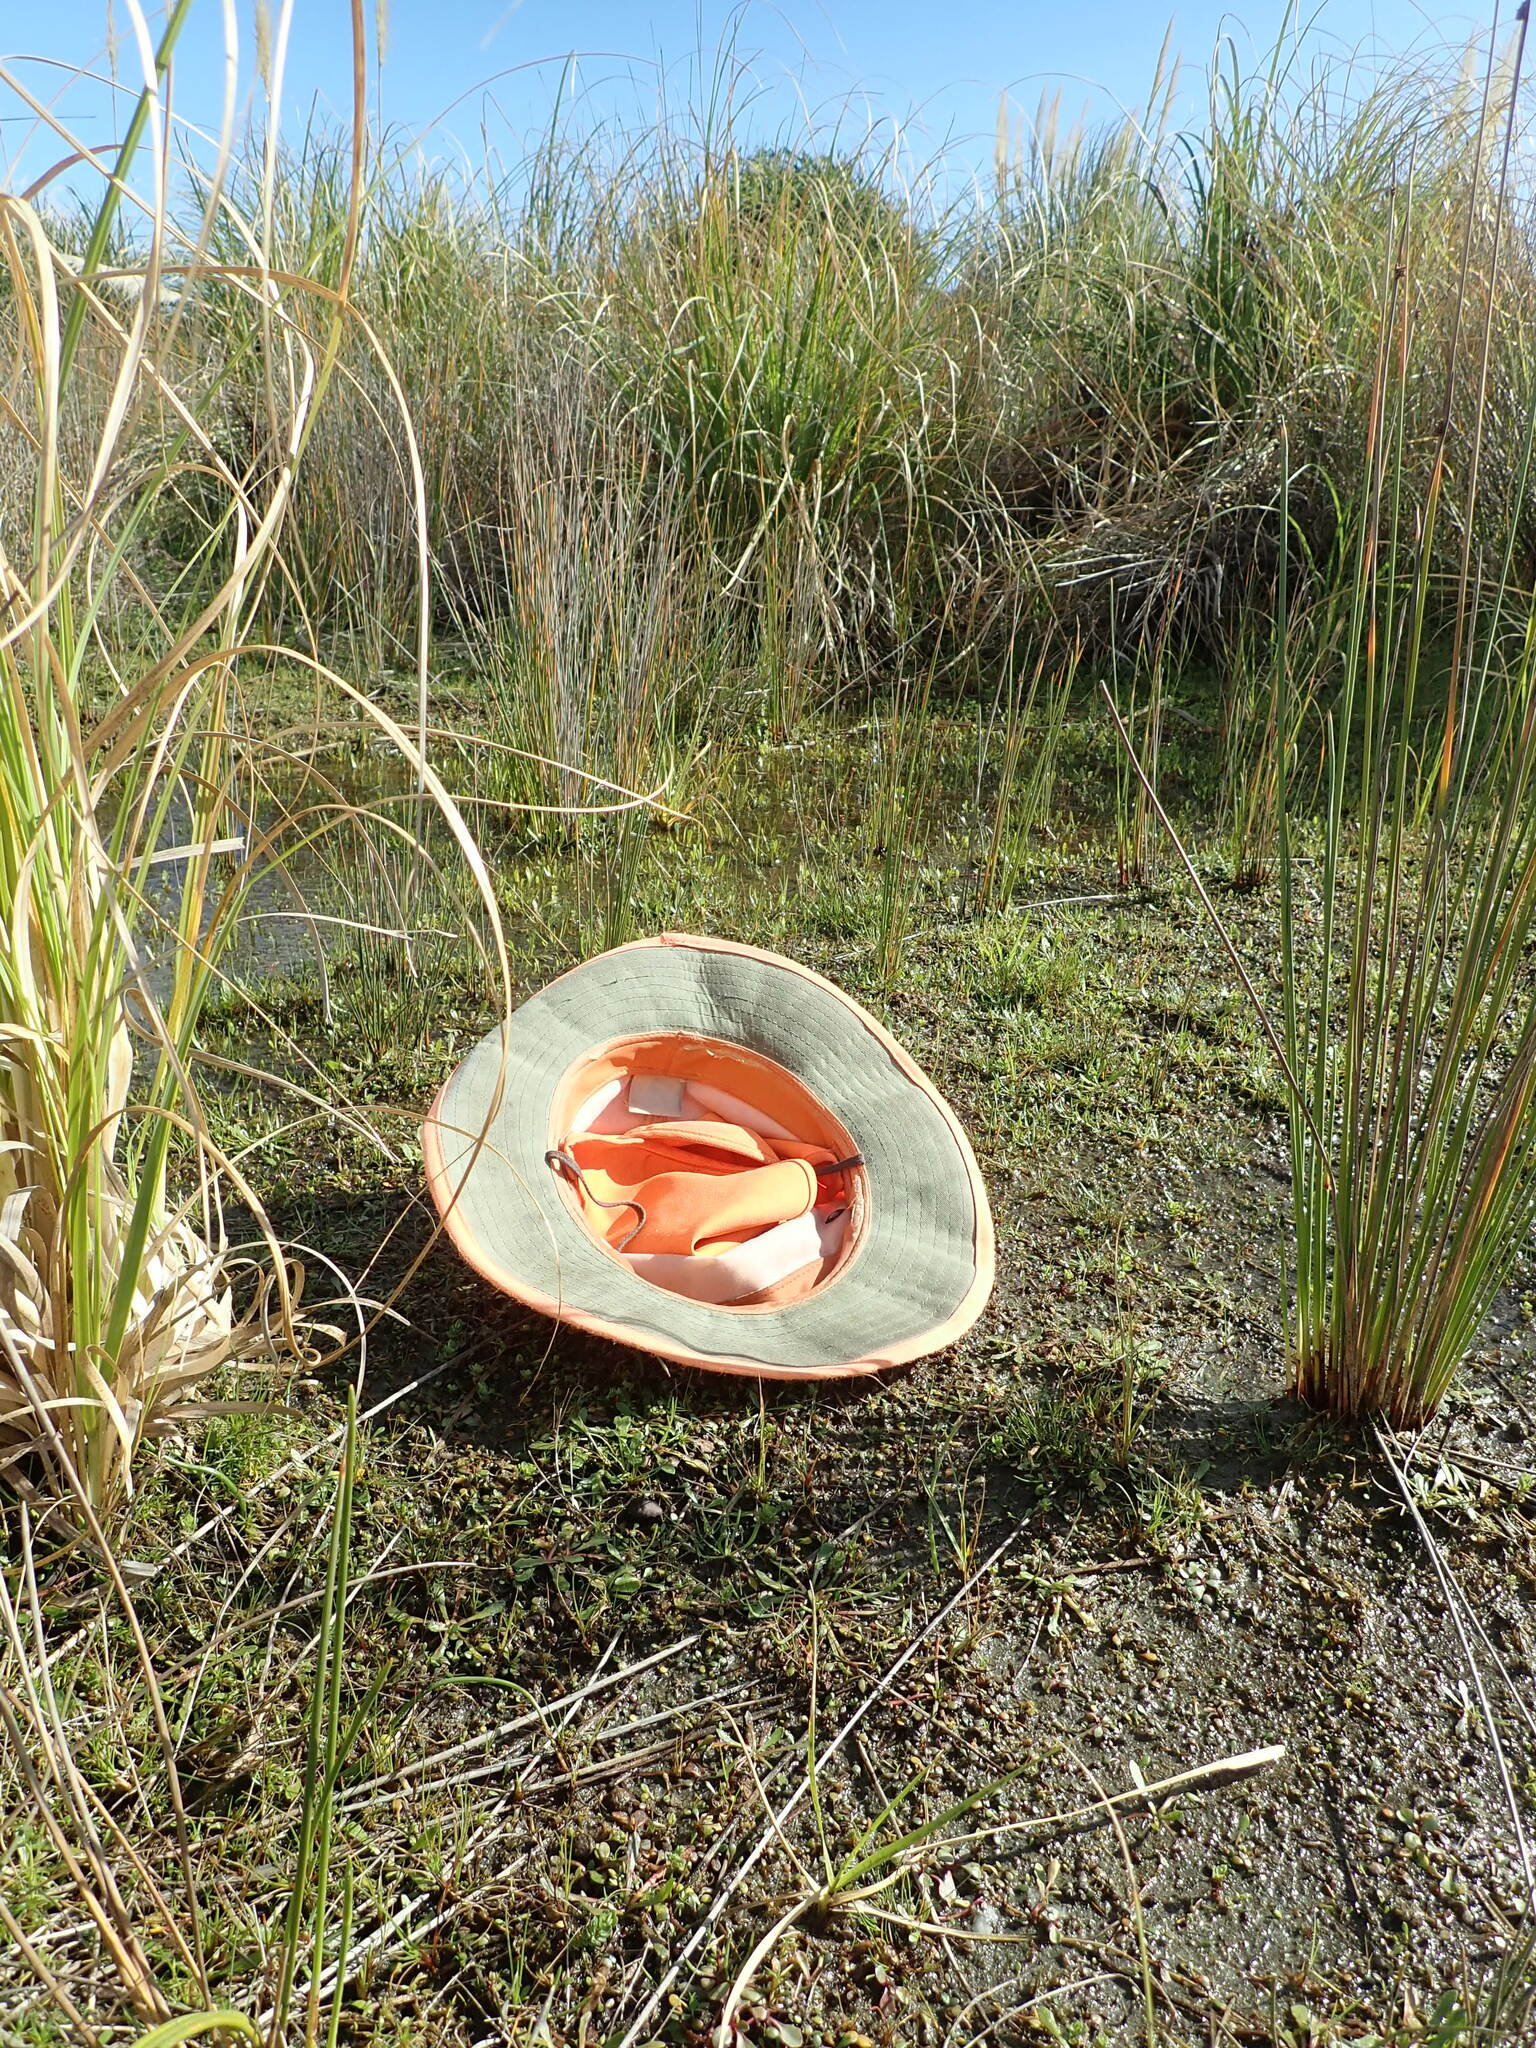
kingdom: Plantae
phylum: Tracheophyta
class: Magnoliopsida
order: Lamiales
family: Plantaginaceae
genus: Plantago
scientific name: Plantago coronopus
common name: Buck's-horn plantain
